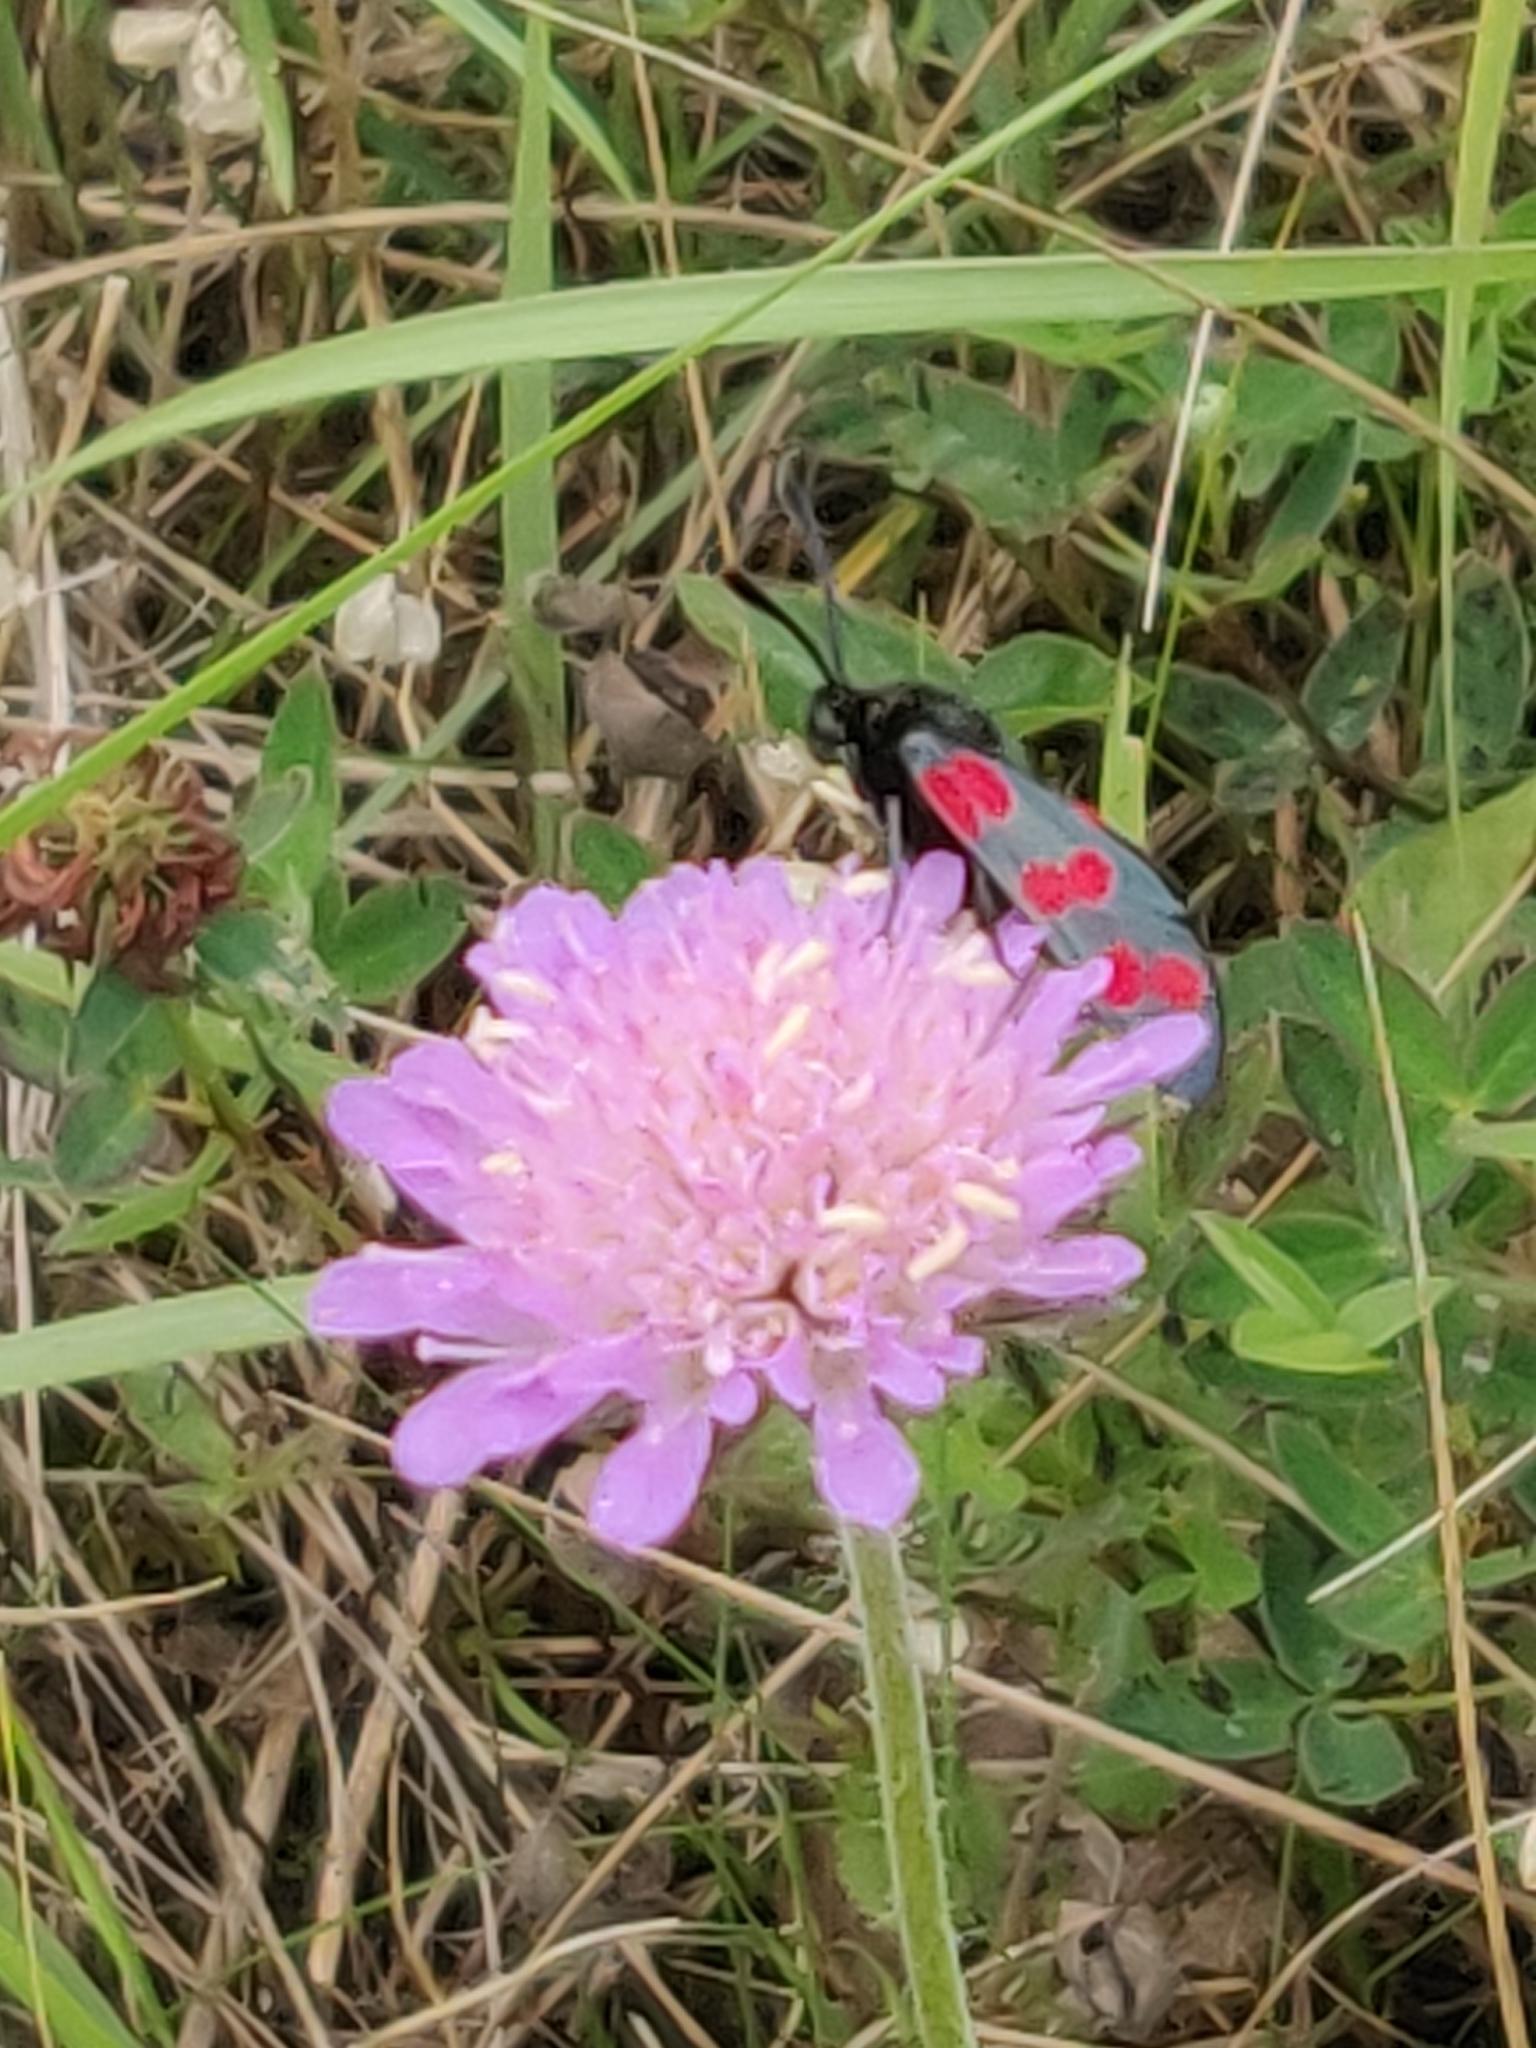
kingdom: Animalia
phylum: Arthropoda
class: Insecta
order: Lepidoptera
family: Zygaenidae
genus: Zygaena
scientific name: Zygaena filipendulae
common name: Six-spot burnet
